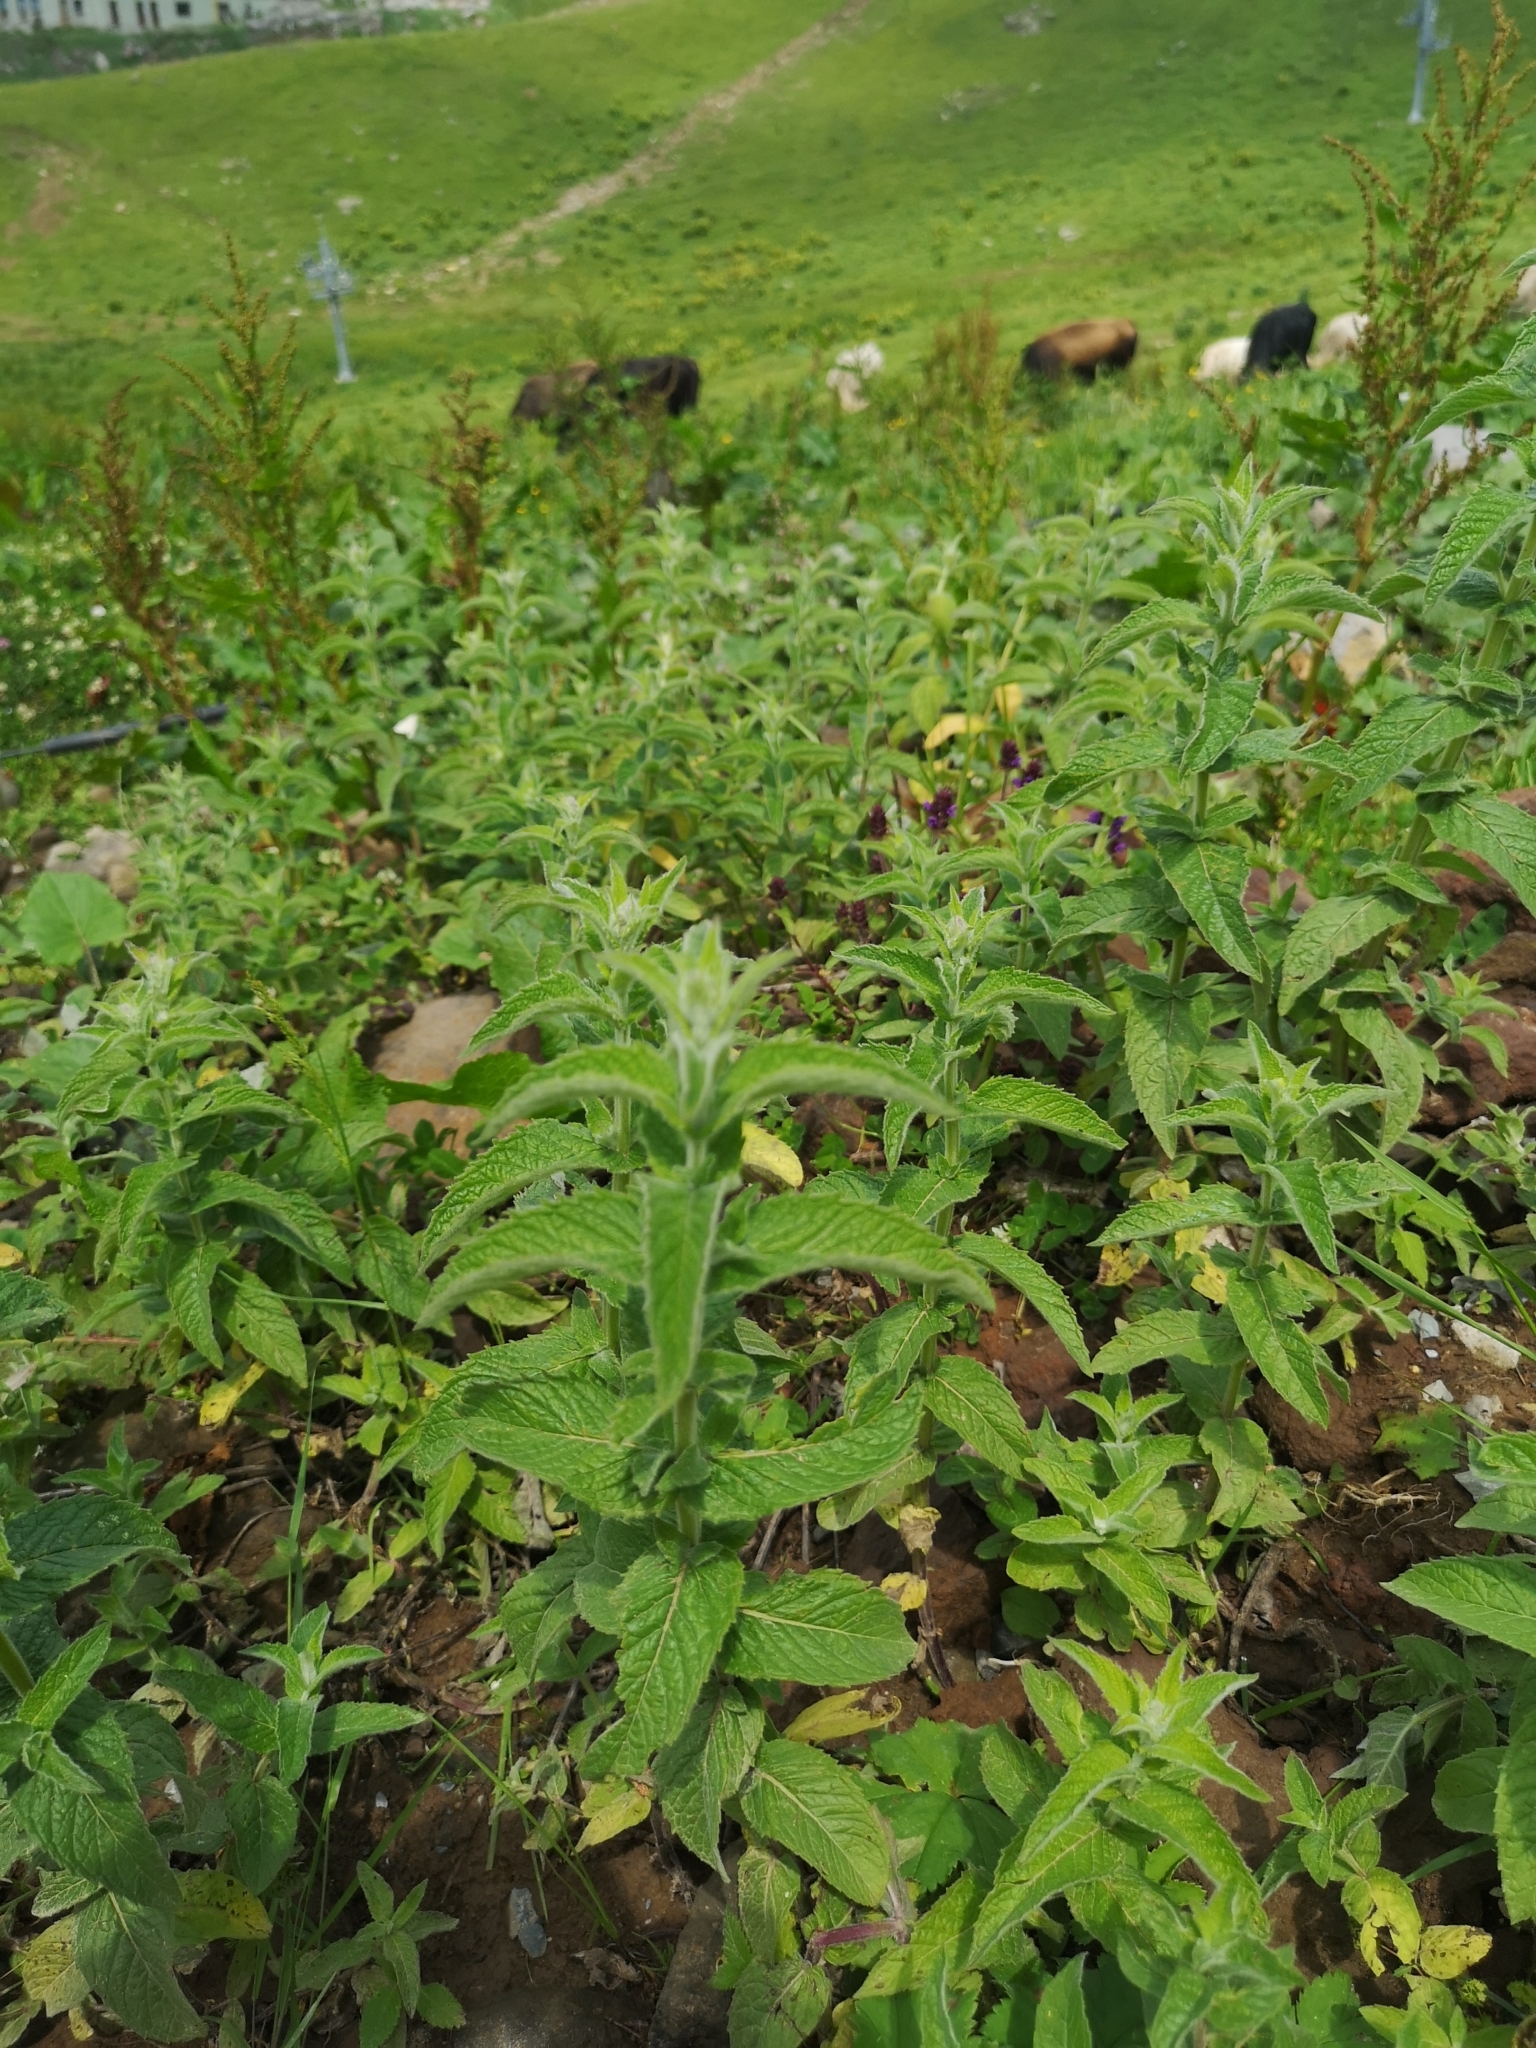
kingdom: Plantae
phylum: Tracheophyta
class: Magnoliopsida
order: Lamiales
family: Lamiaceae
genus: Mentha
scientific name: Mentha longifolia
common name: Horse mint
